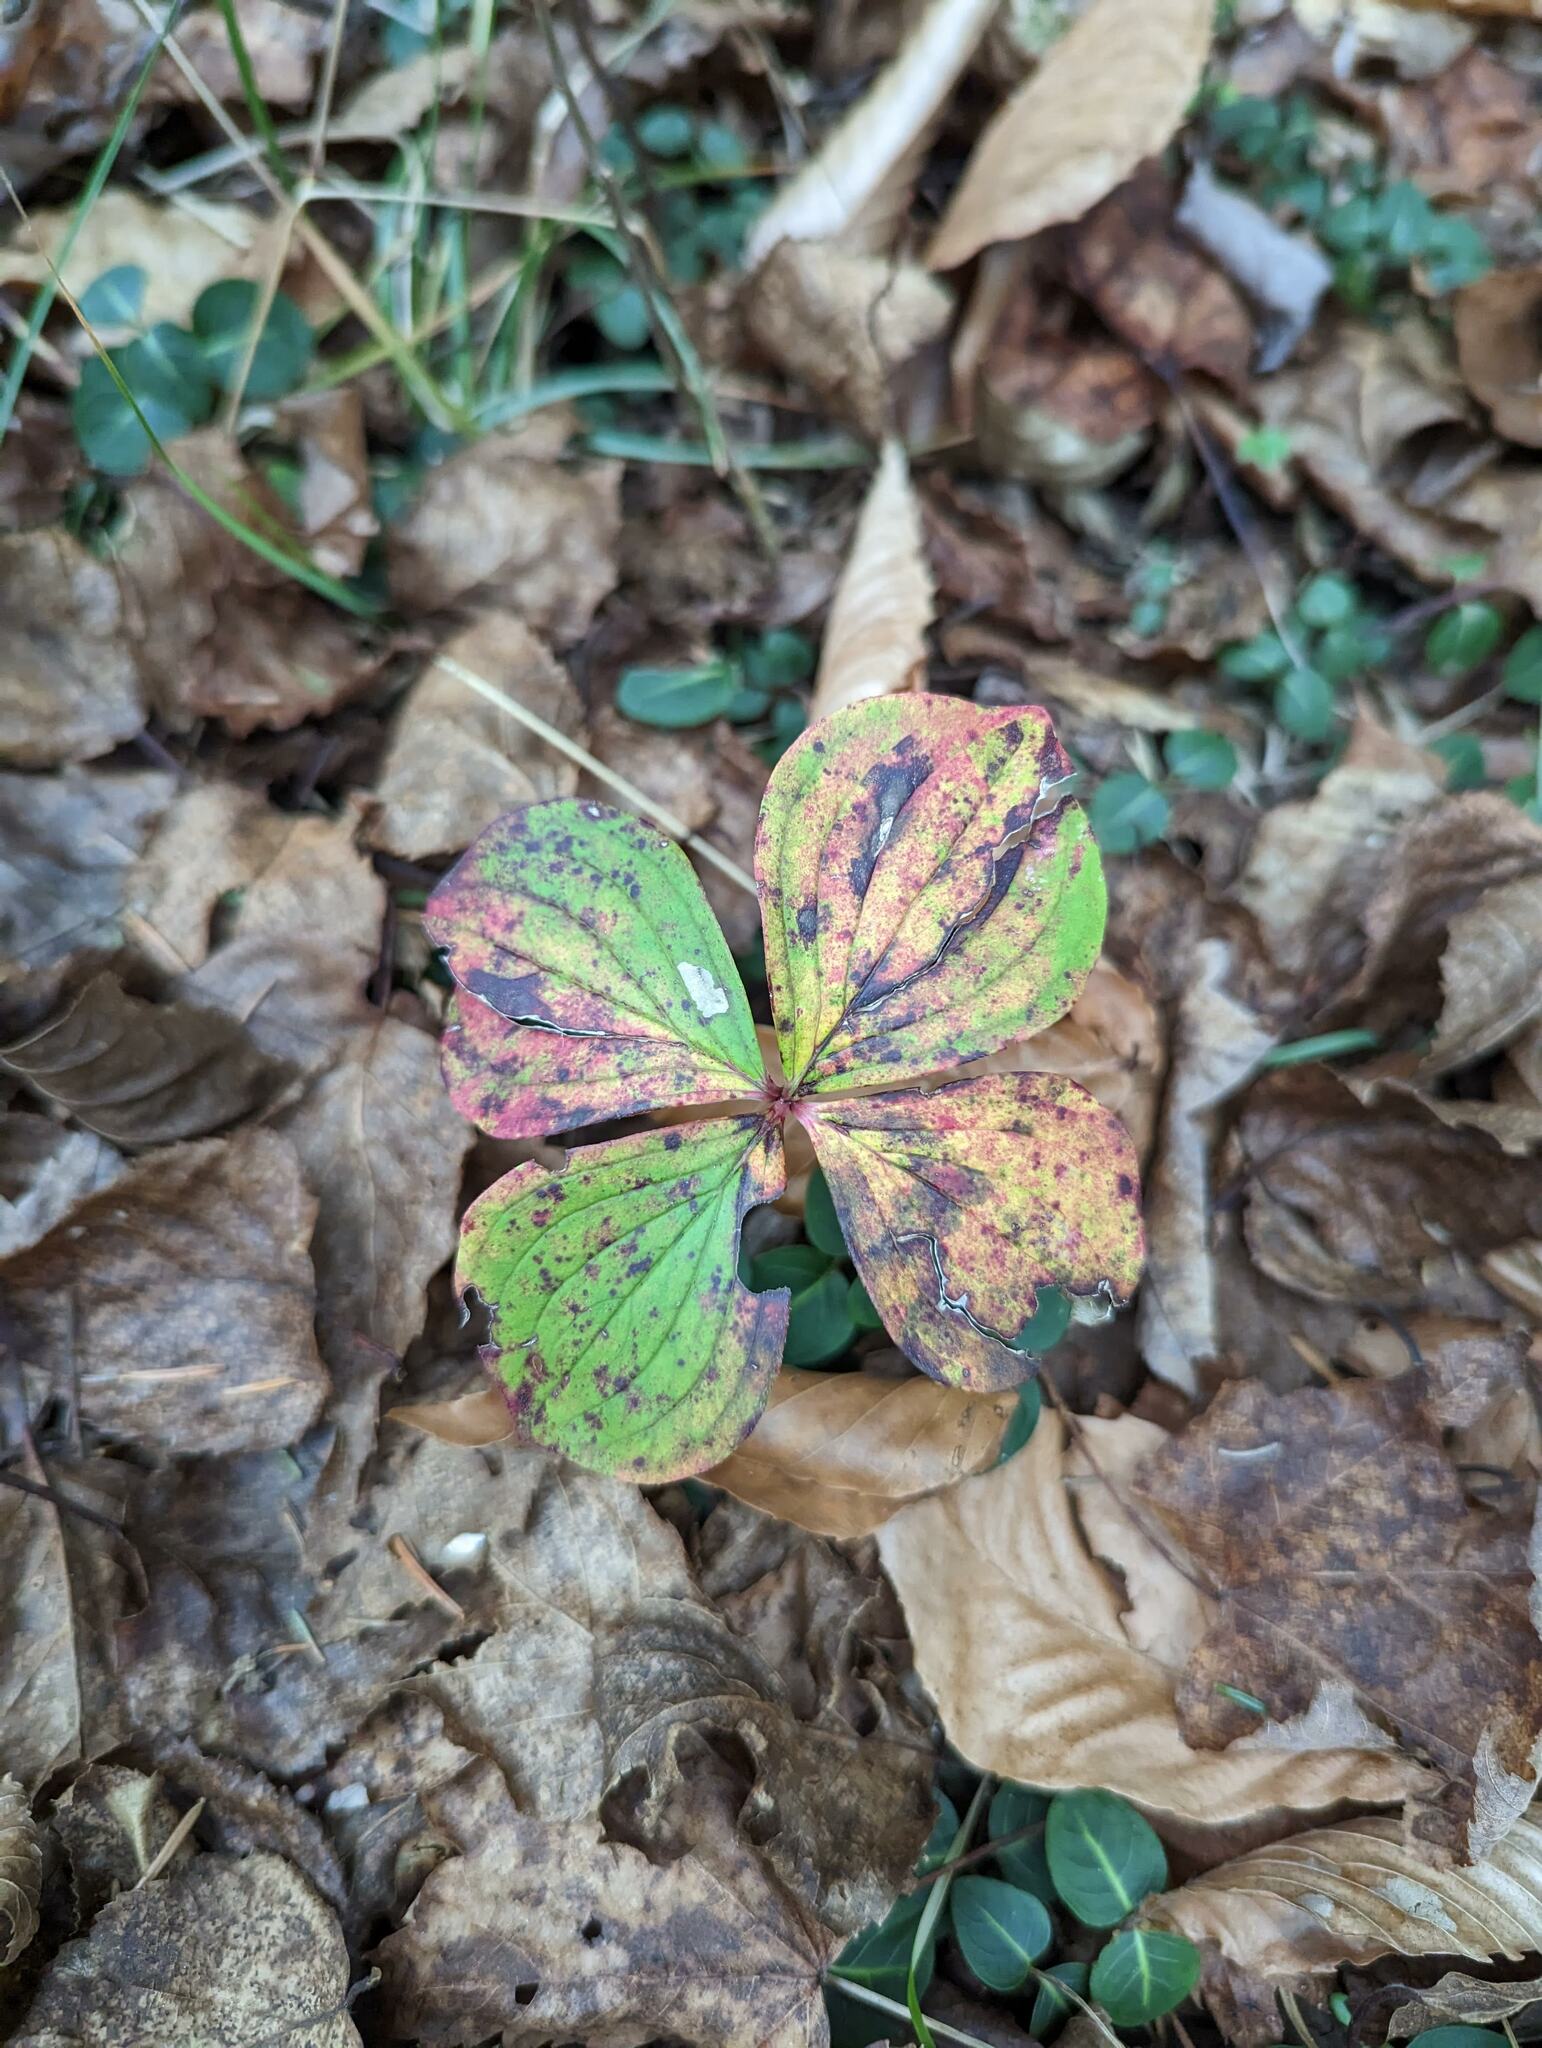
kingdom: Plantae
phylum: Tracheophyta
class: Magnoliopsida
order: Cornales
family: Cornaceae
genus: Cornus
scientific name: Cornus canadensis
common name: Creeping dogwood
